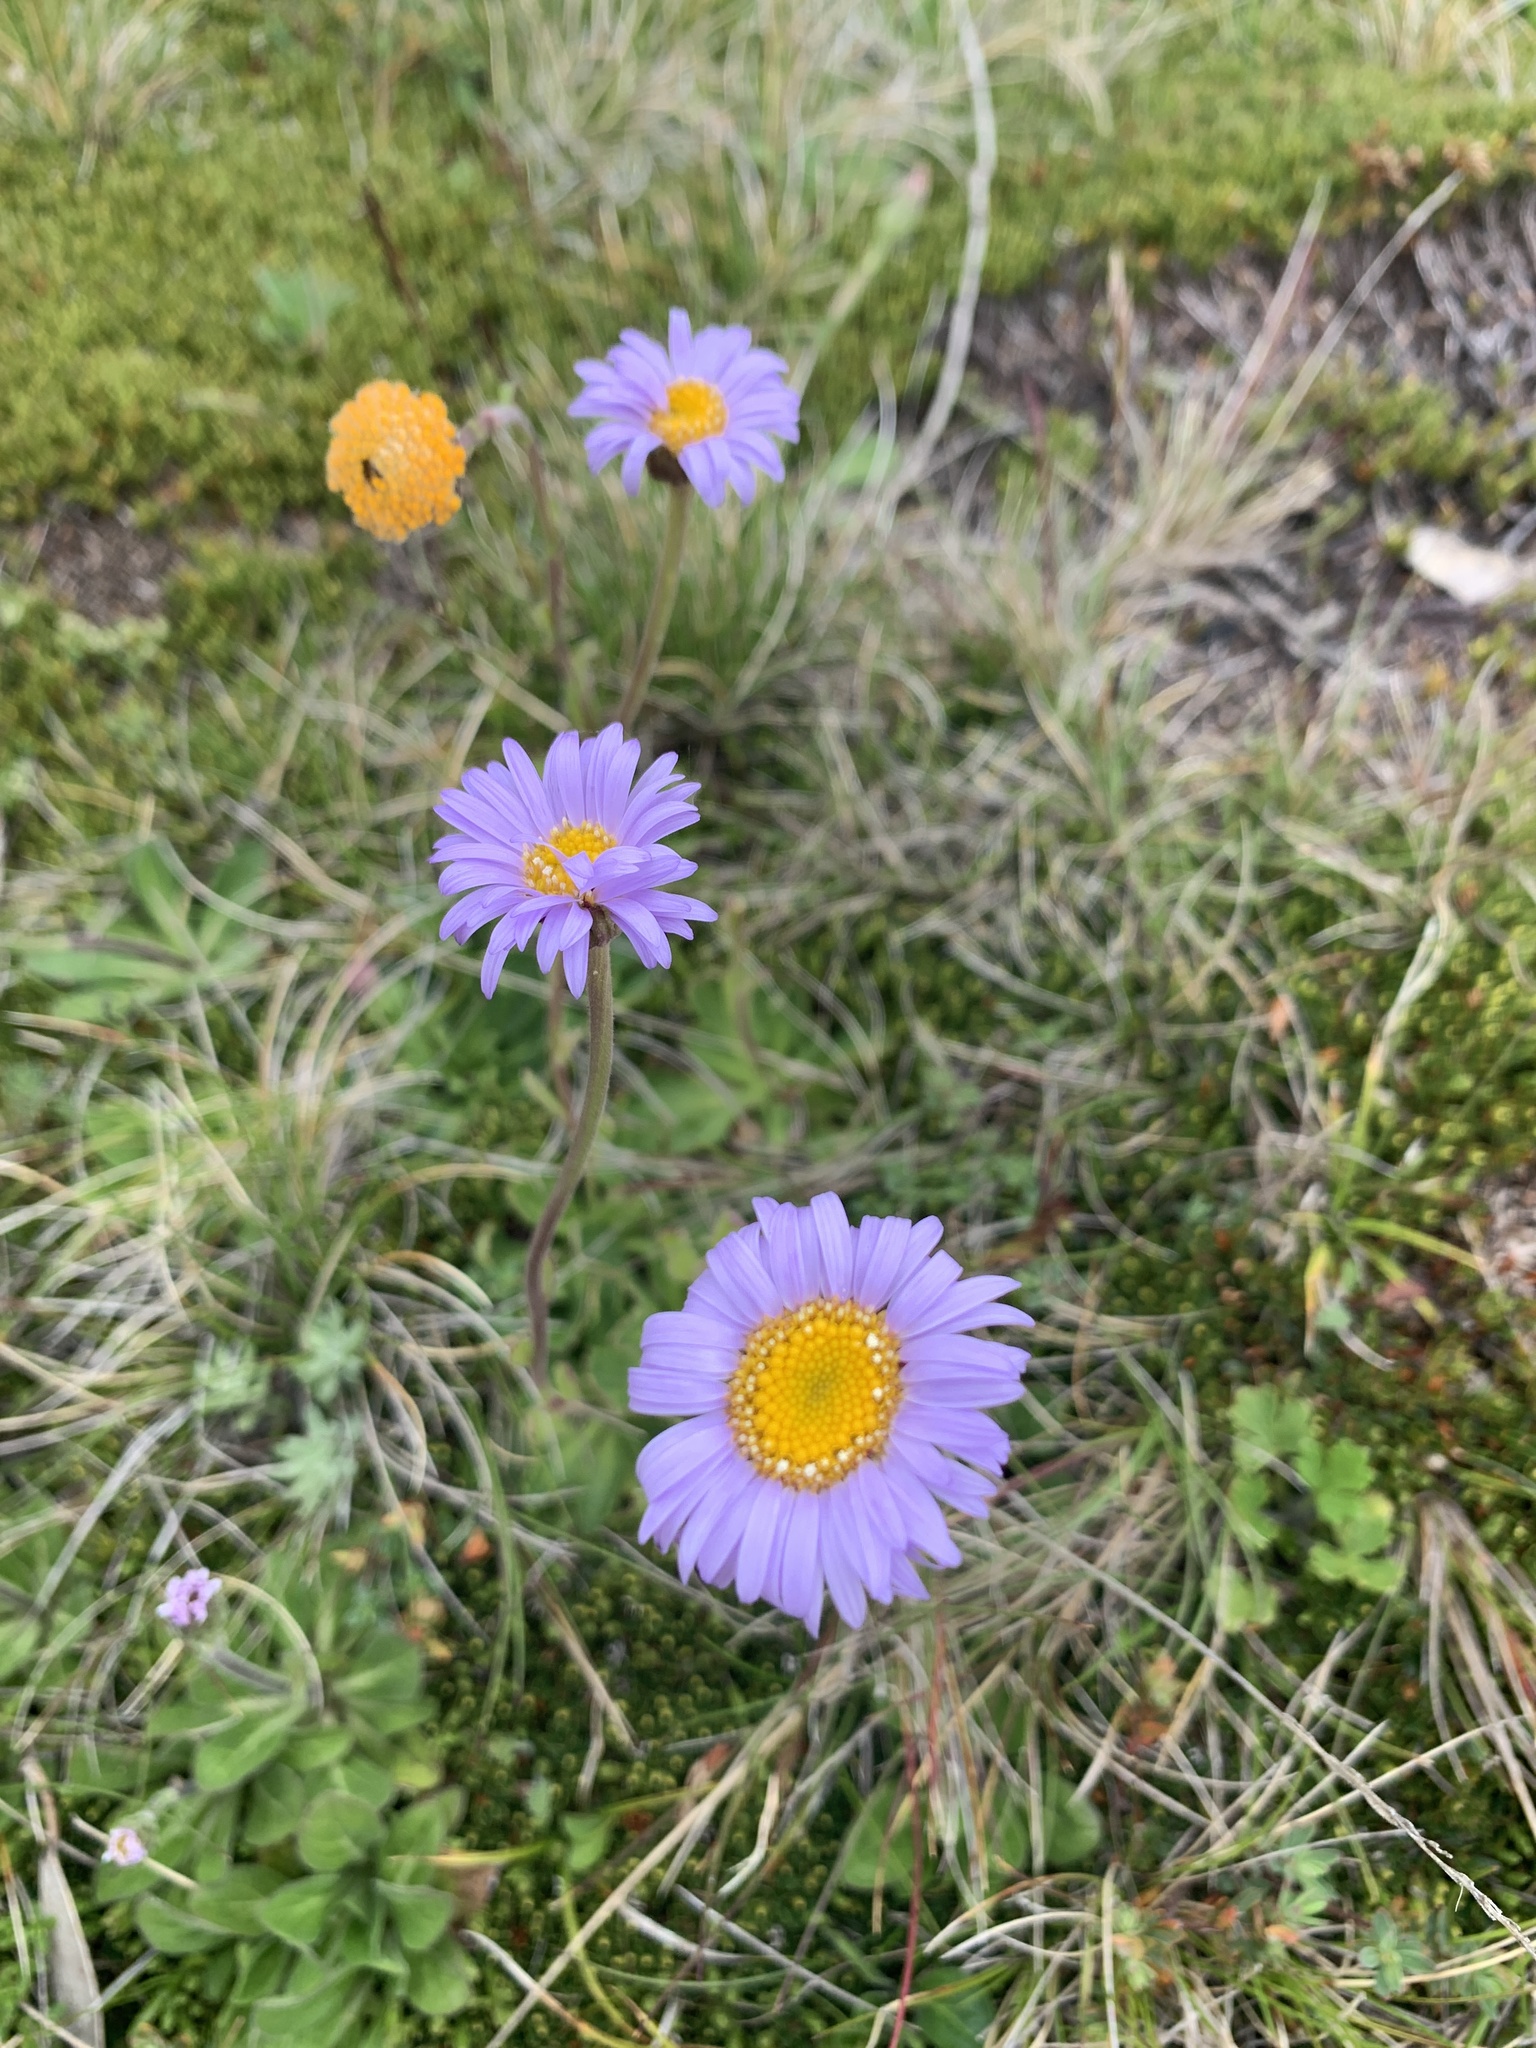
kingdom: Plantae
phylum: Tracheophyta
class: Magnoliopsida
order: Asterales
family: Asteraceae
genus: Brachyscome
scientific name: Brachyscome spathulata
